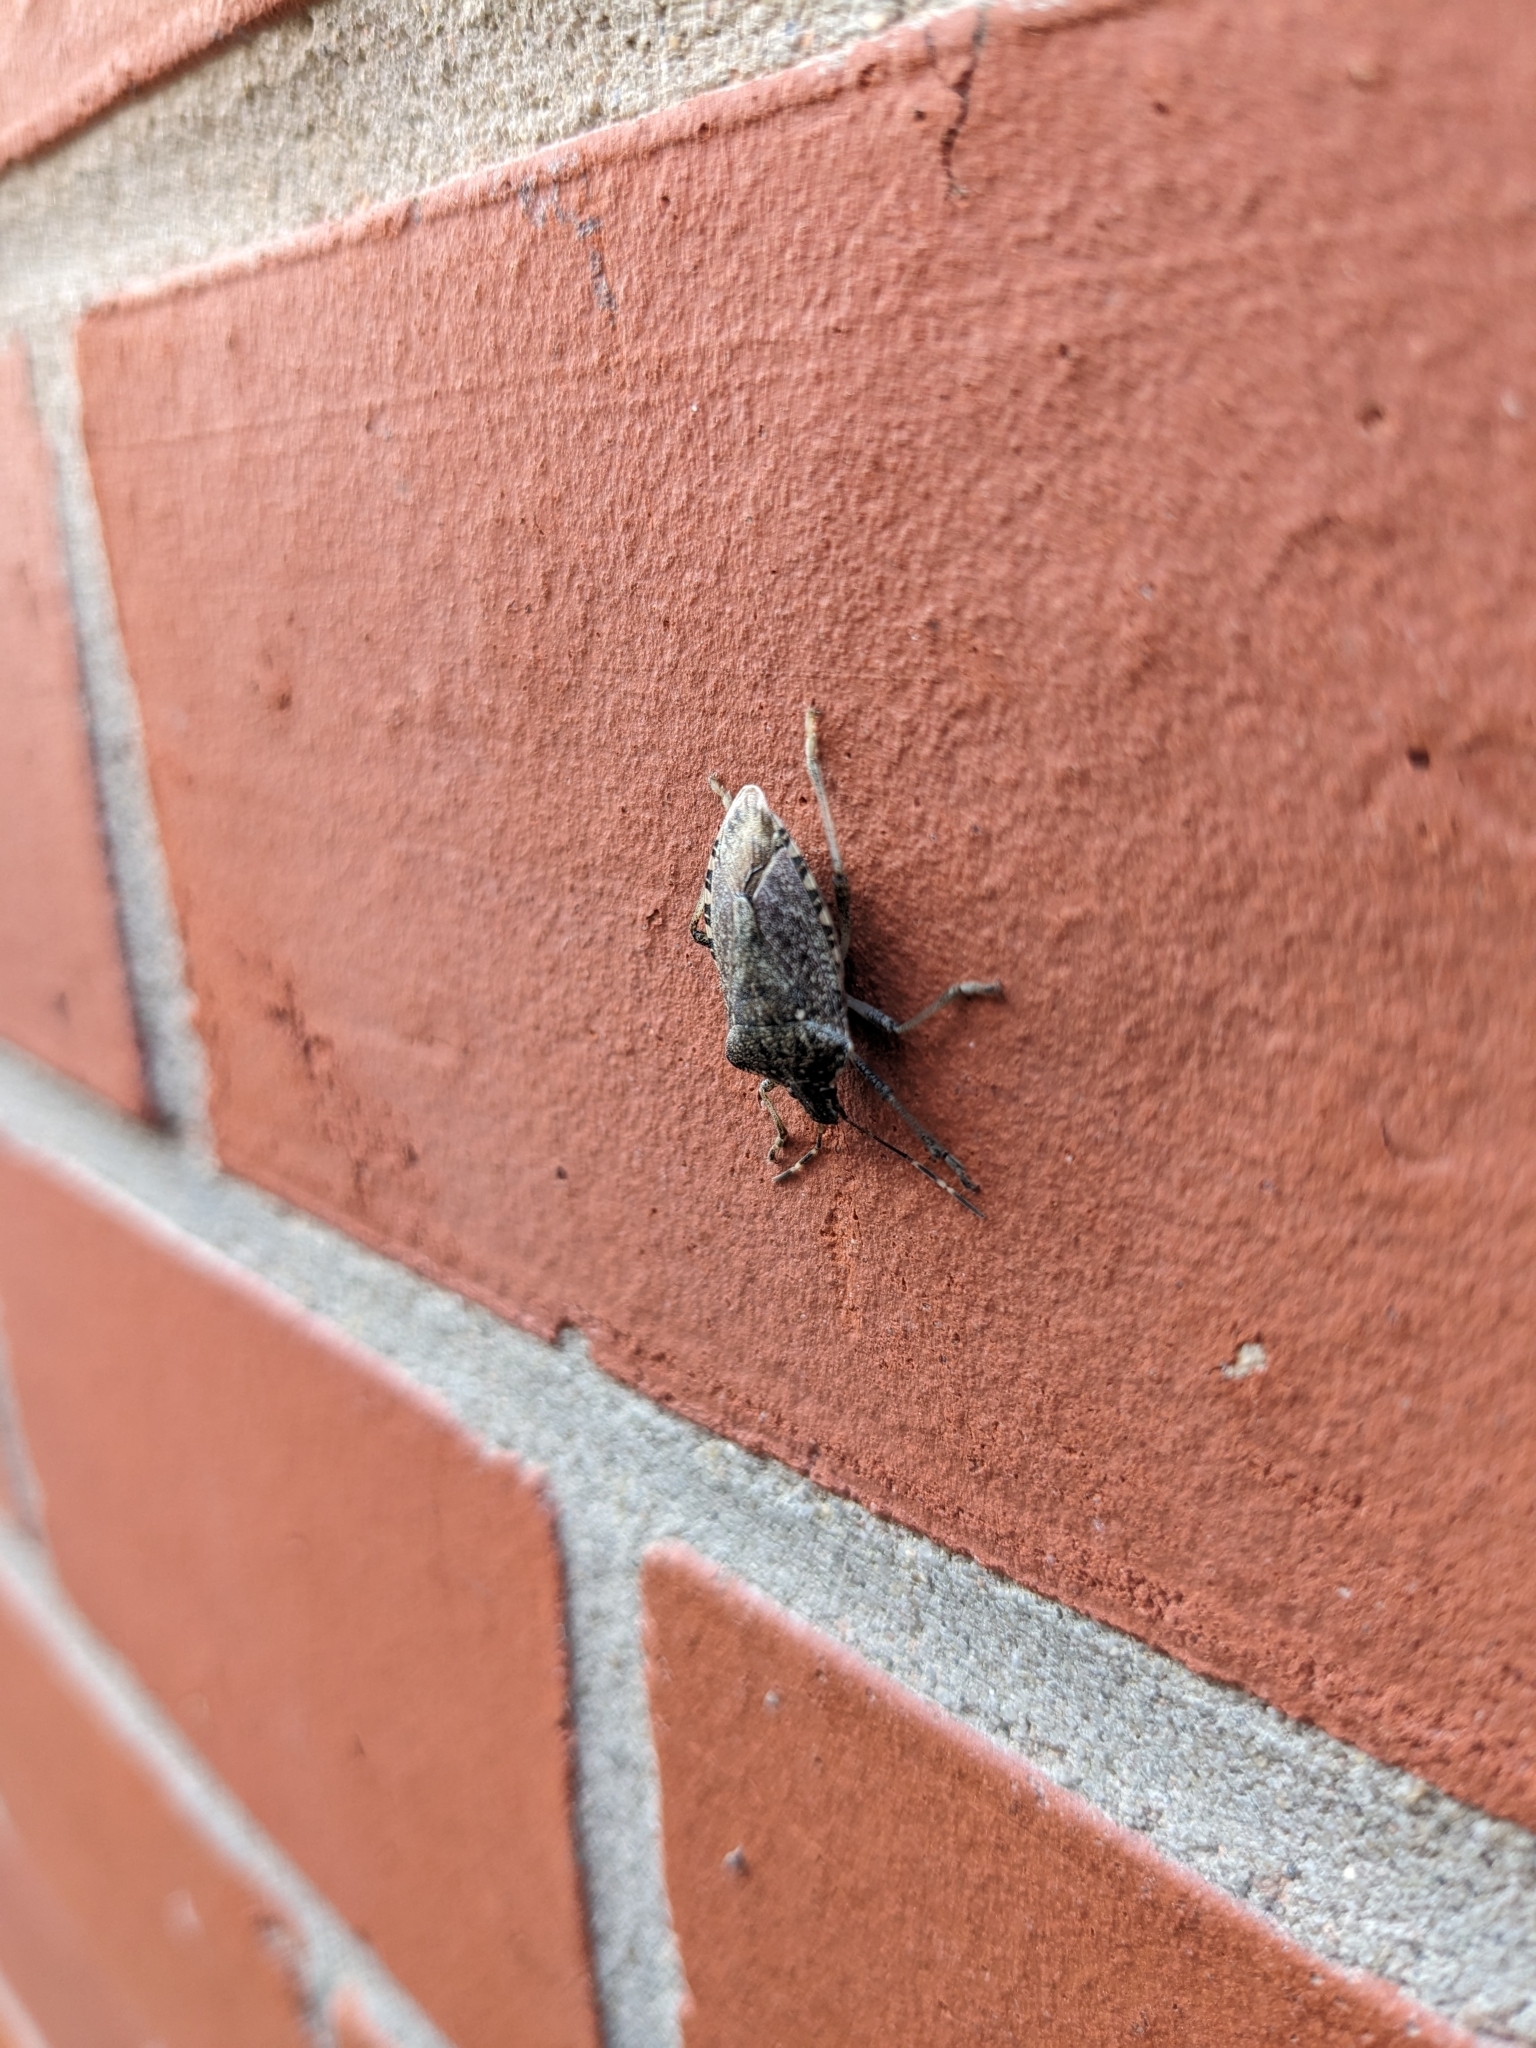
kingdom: Animalia
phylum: Arthropoda
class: Insecta
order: Hemiptera
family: Pentatomidae
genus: Halyomorpha
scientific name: Halyomorpha halys
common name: Brown marmorated stink bug
